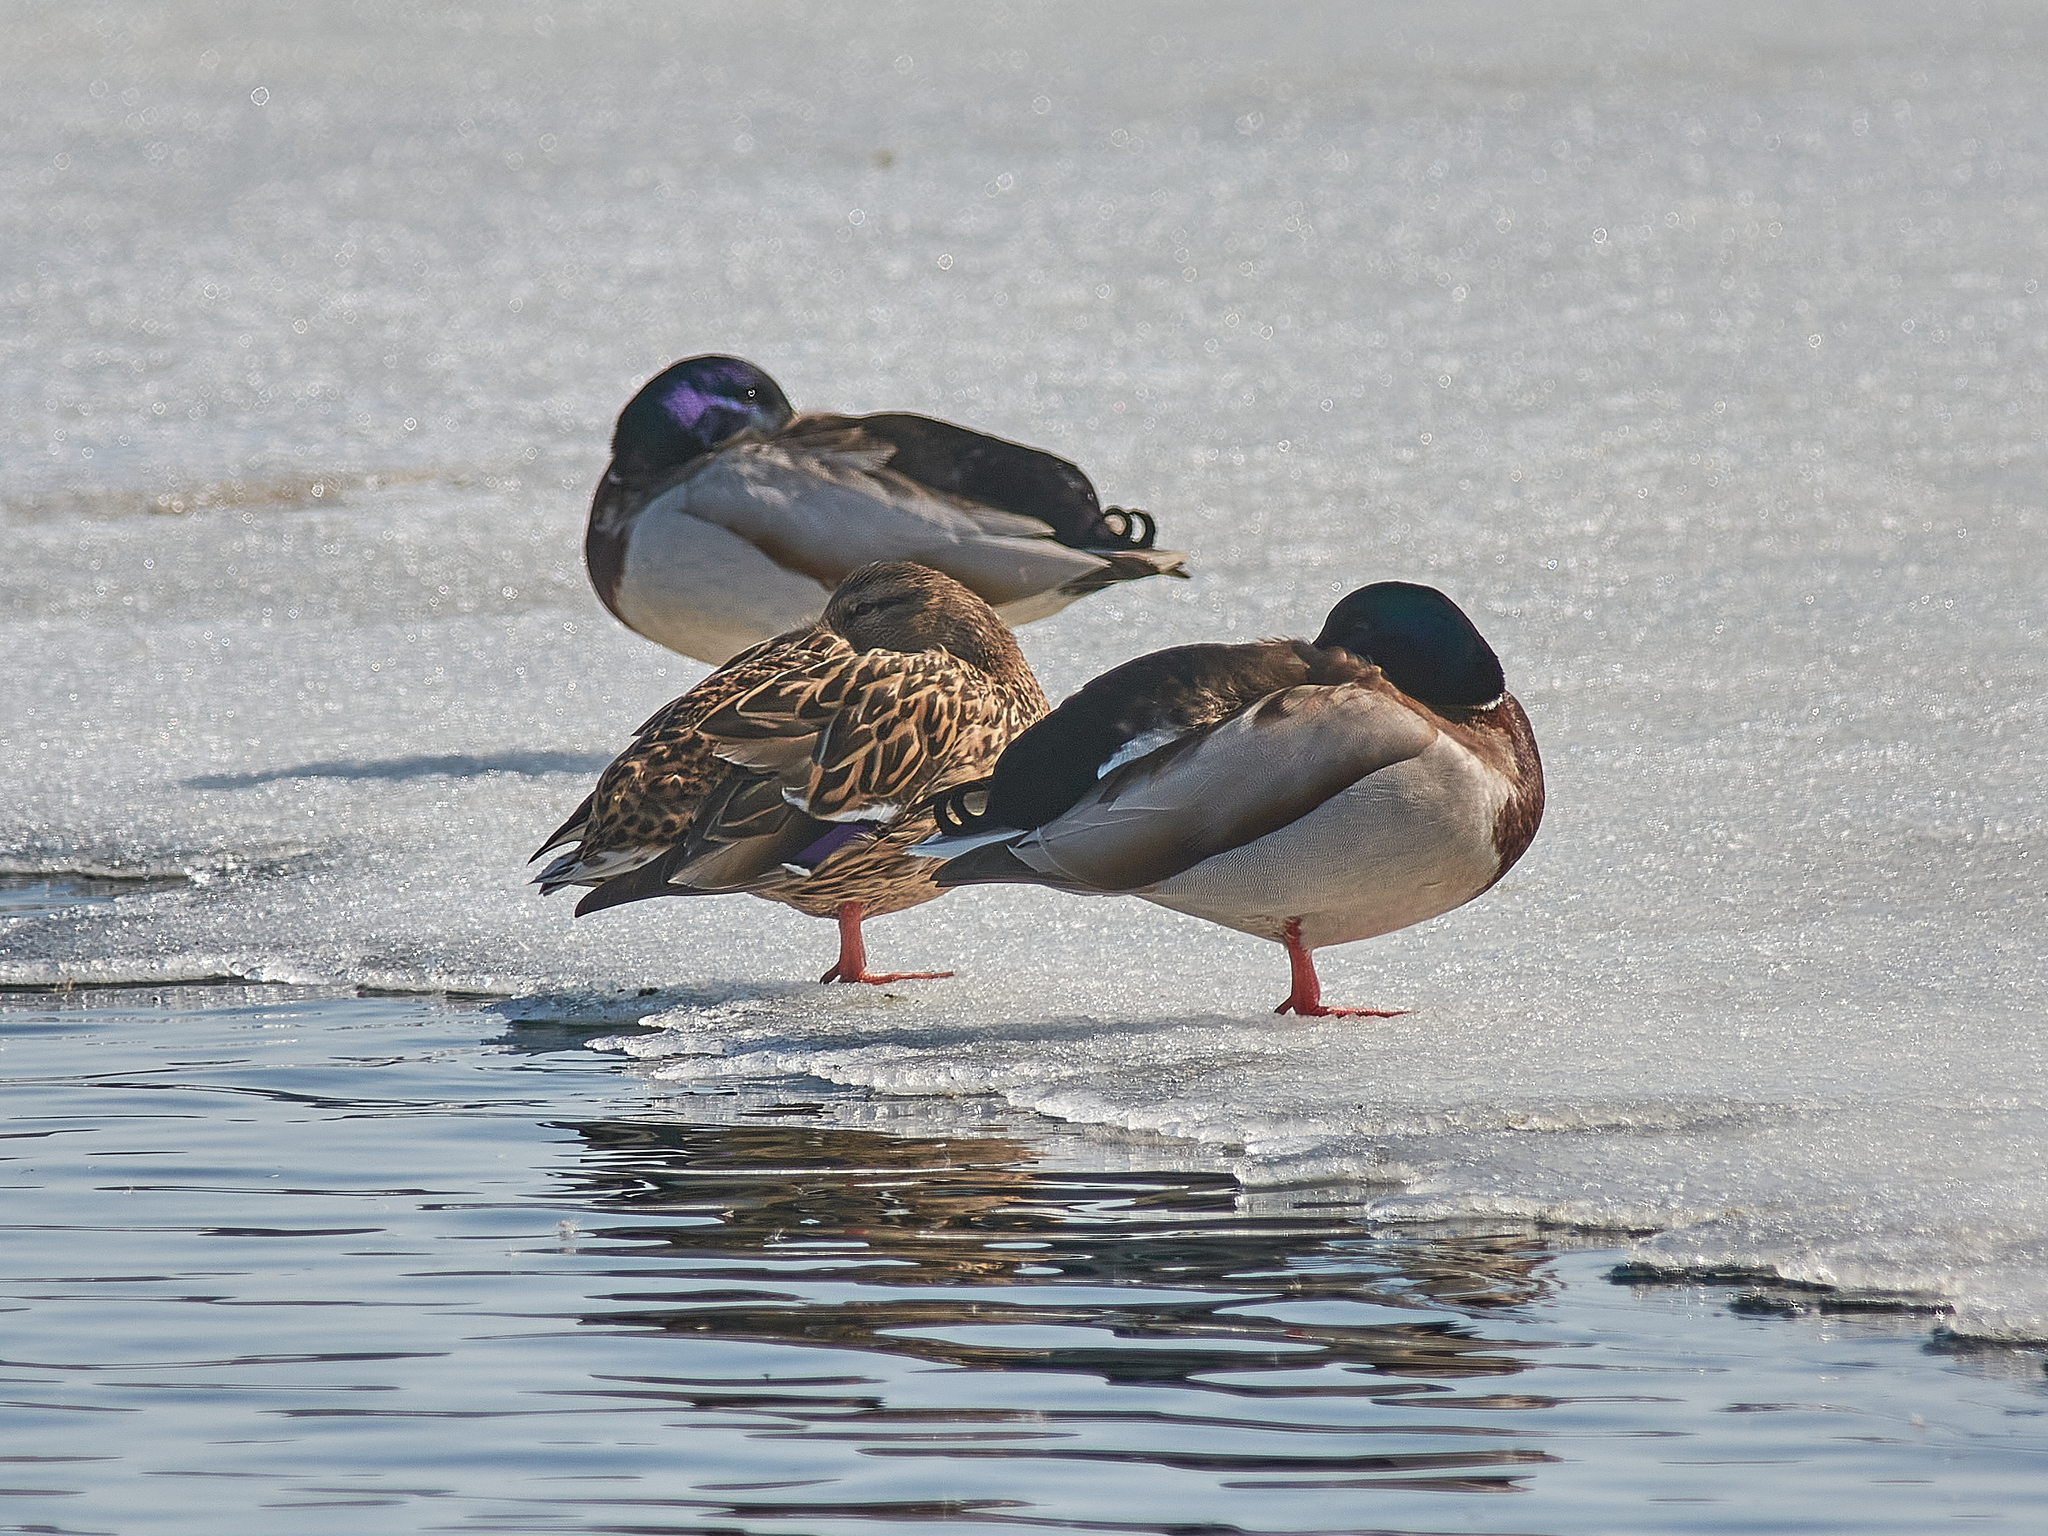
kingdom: Animalia
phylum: Chordata
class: Aves
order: Anseriformes
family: Anatidae
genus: Anas
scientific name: Anas platyrhynchos
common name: Mallard
